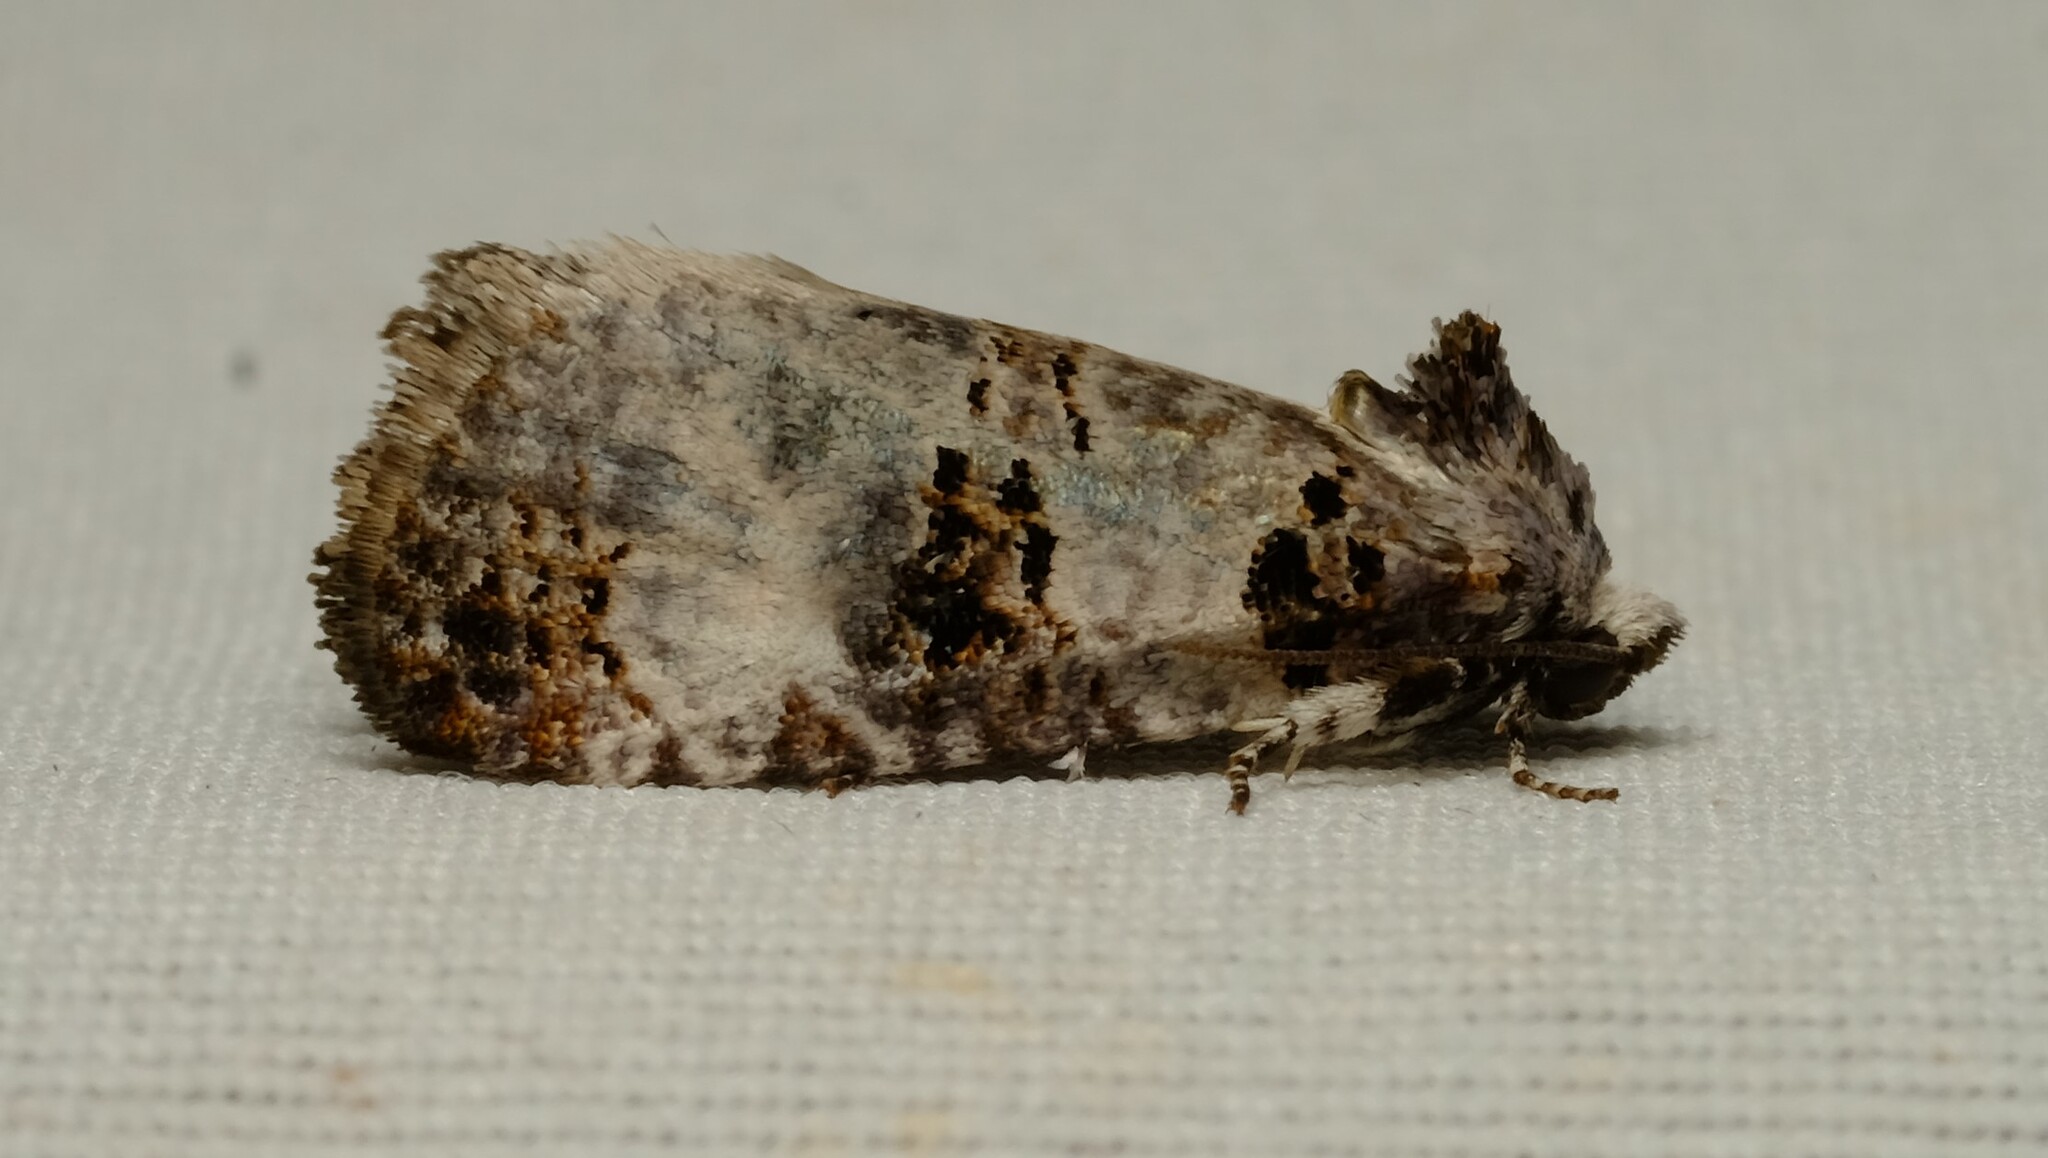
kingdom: Animalia
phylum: Arthropoda
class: Insecta
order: Lepidoptera
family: Cossidae
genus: Idioses
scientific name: Idioses littleri
